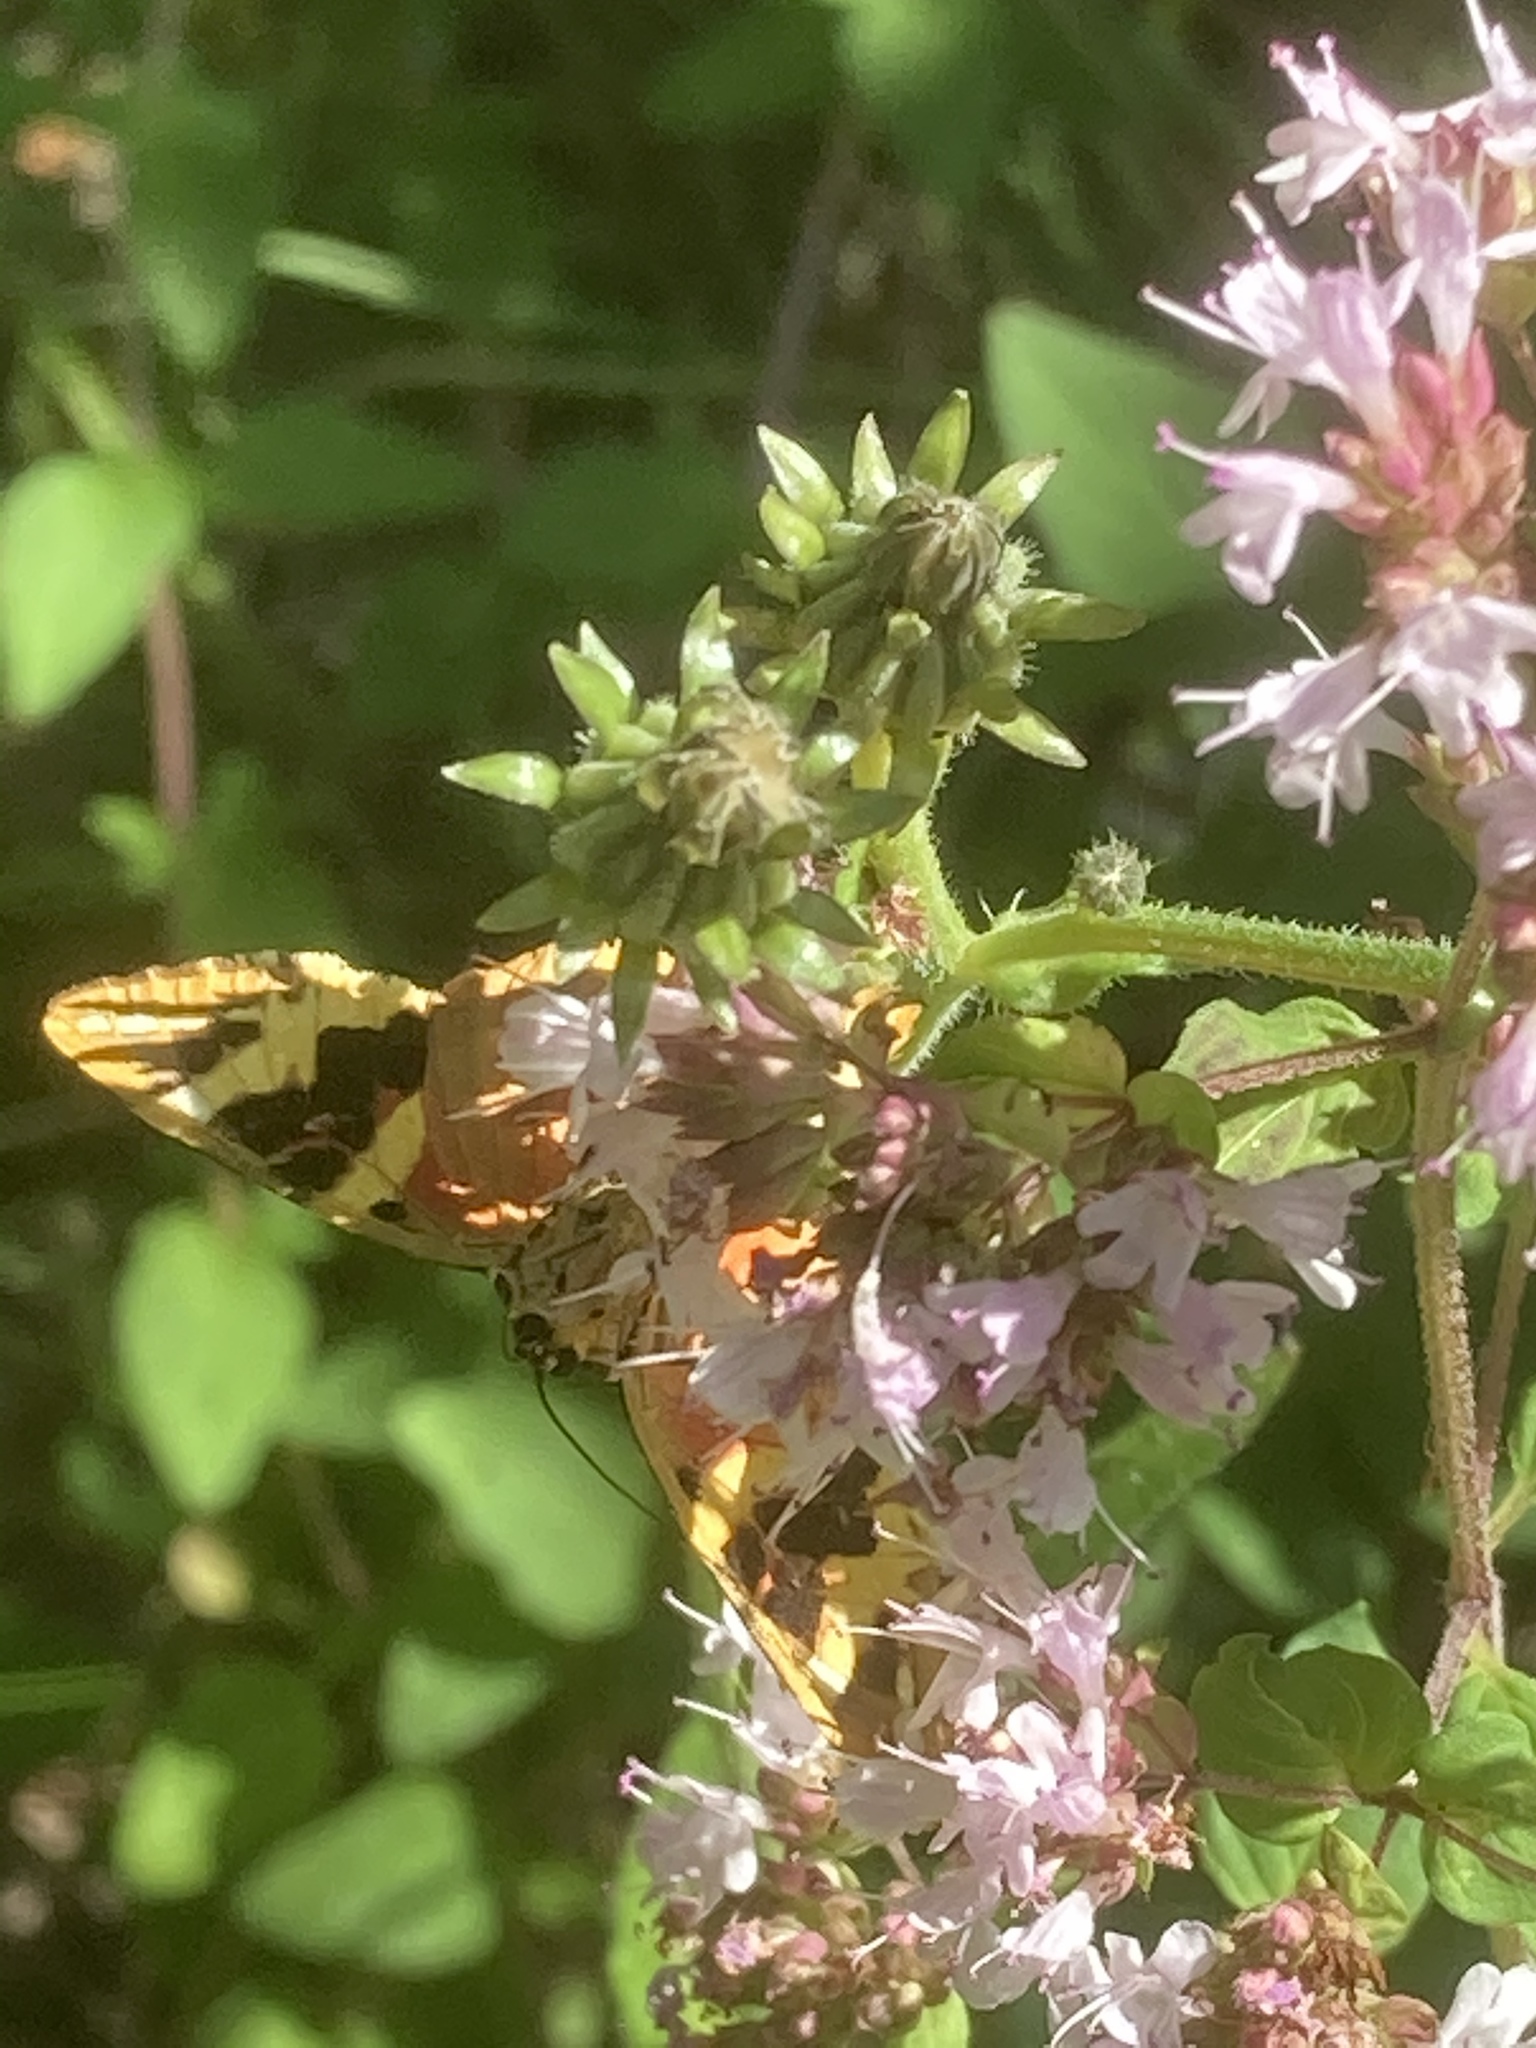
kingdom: Animalia
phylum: Arthropoda
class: Insecta
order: Lepidoptera
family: Erebidae
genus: Euplagia
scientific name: Euplagia quadripunctaria
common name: Jersey tiger
